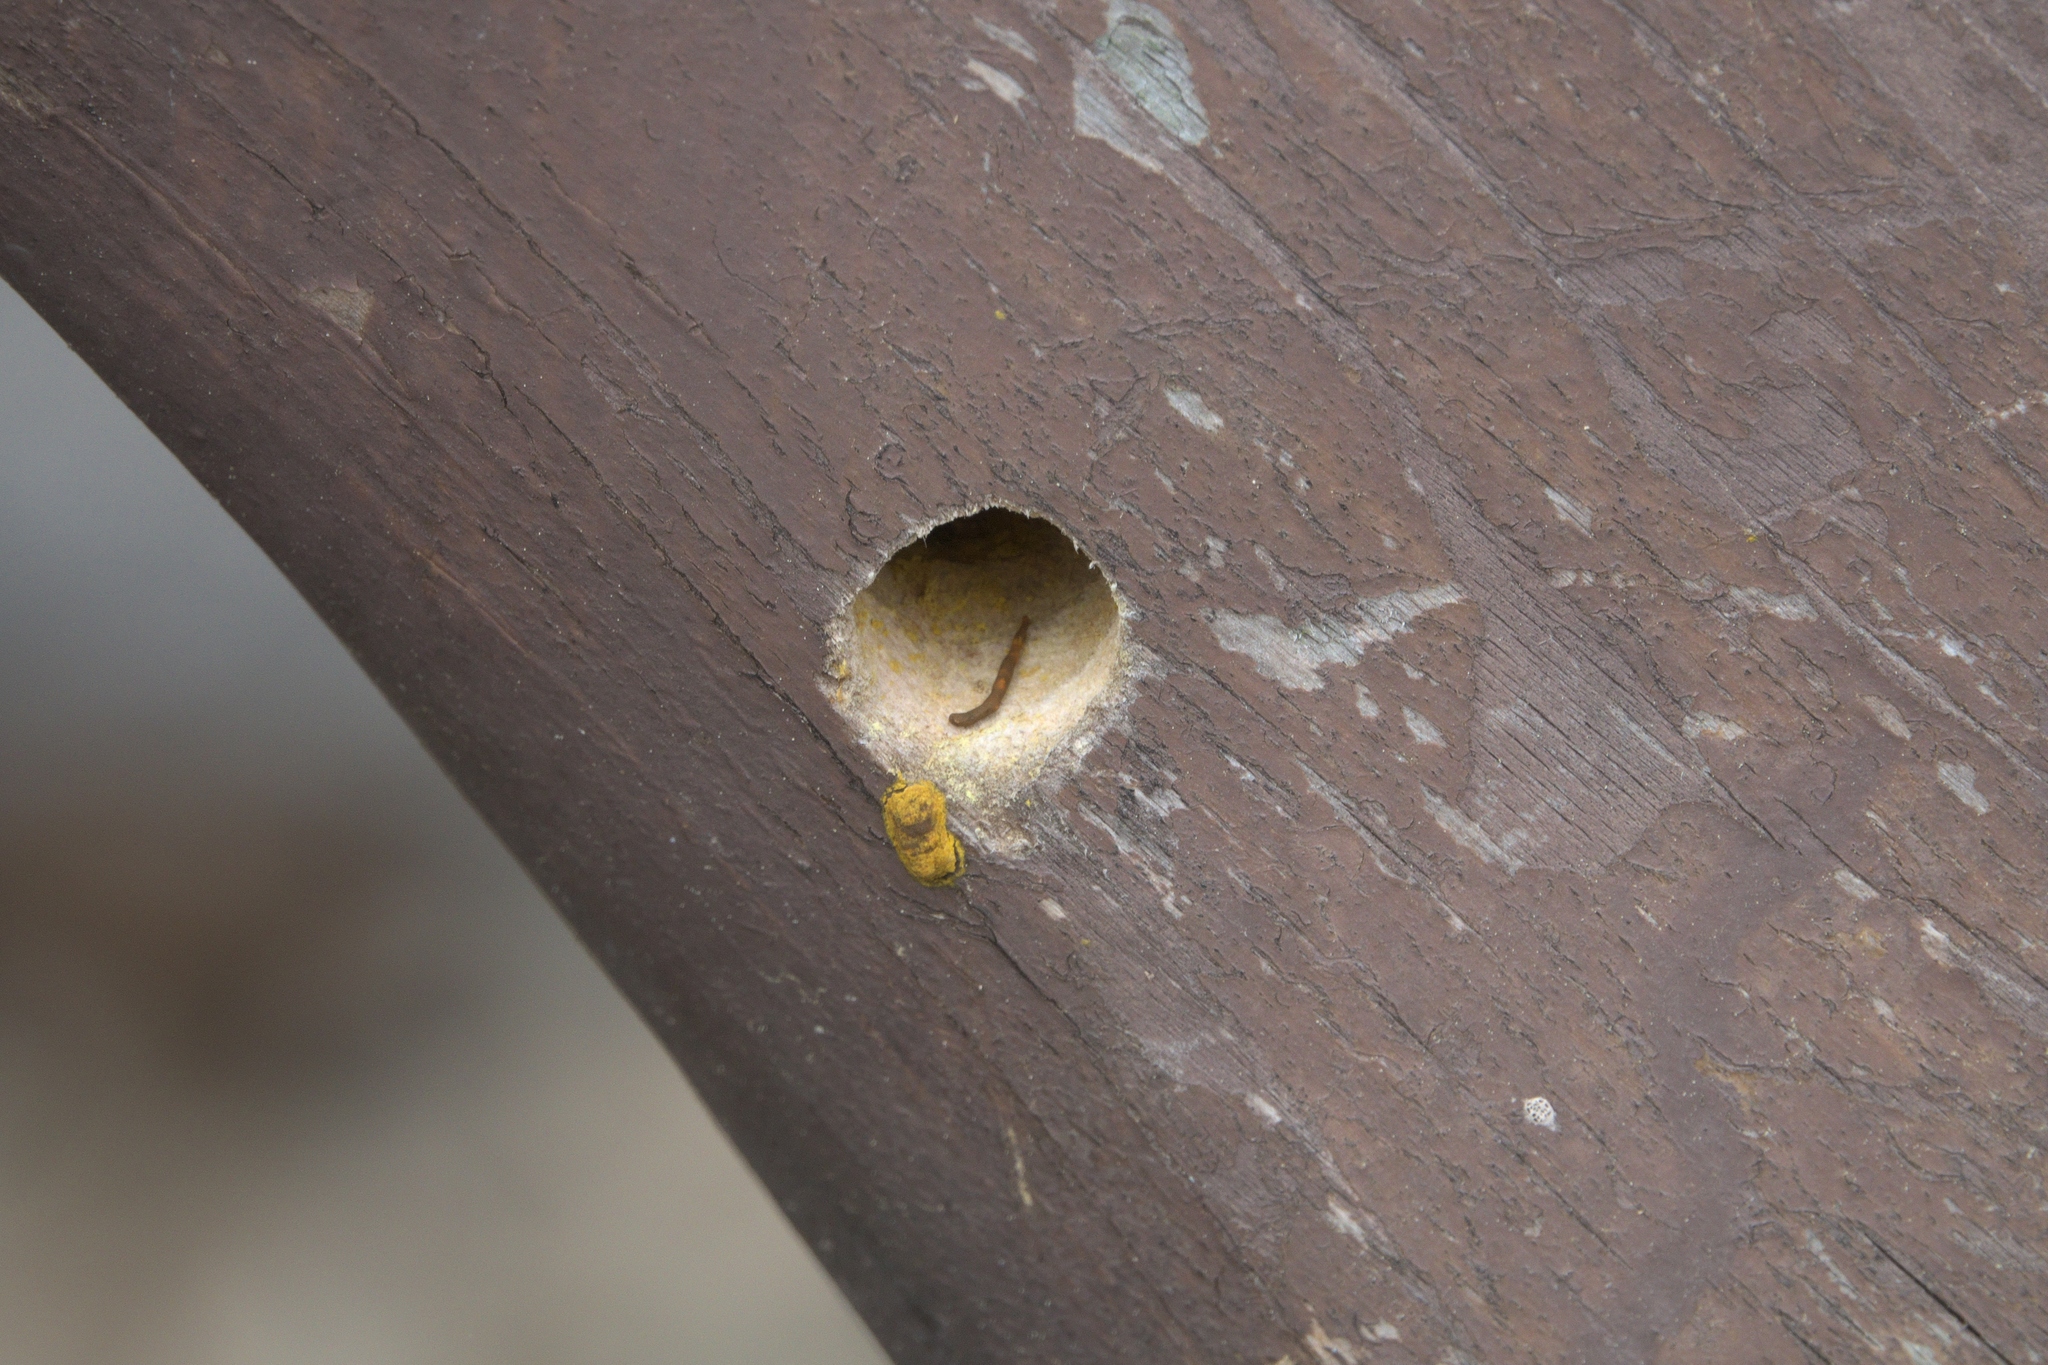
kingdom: Animalia
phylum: Arthropoda
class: Insecta
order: Hymenoptera
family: Apidae
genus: Xylocopa
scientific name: Xylocopa virginica
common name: Carpenter bee
